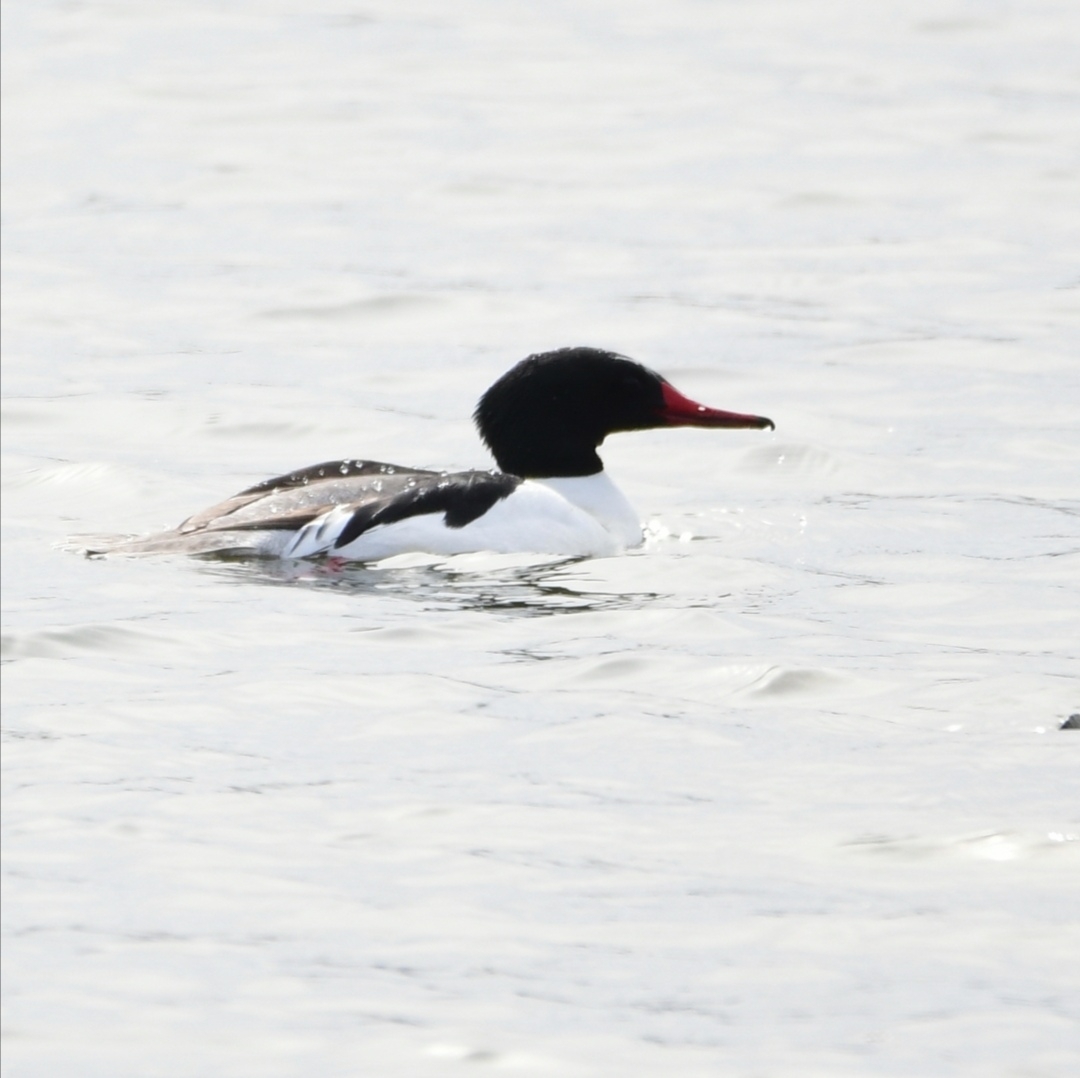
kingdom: Animalia
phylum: Chordata
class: Aves
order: Anseriformes
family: Anatidae
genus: Mergus
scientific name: Mergus merganser
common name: Common merganser
